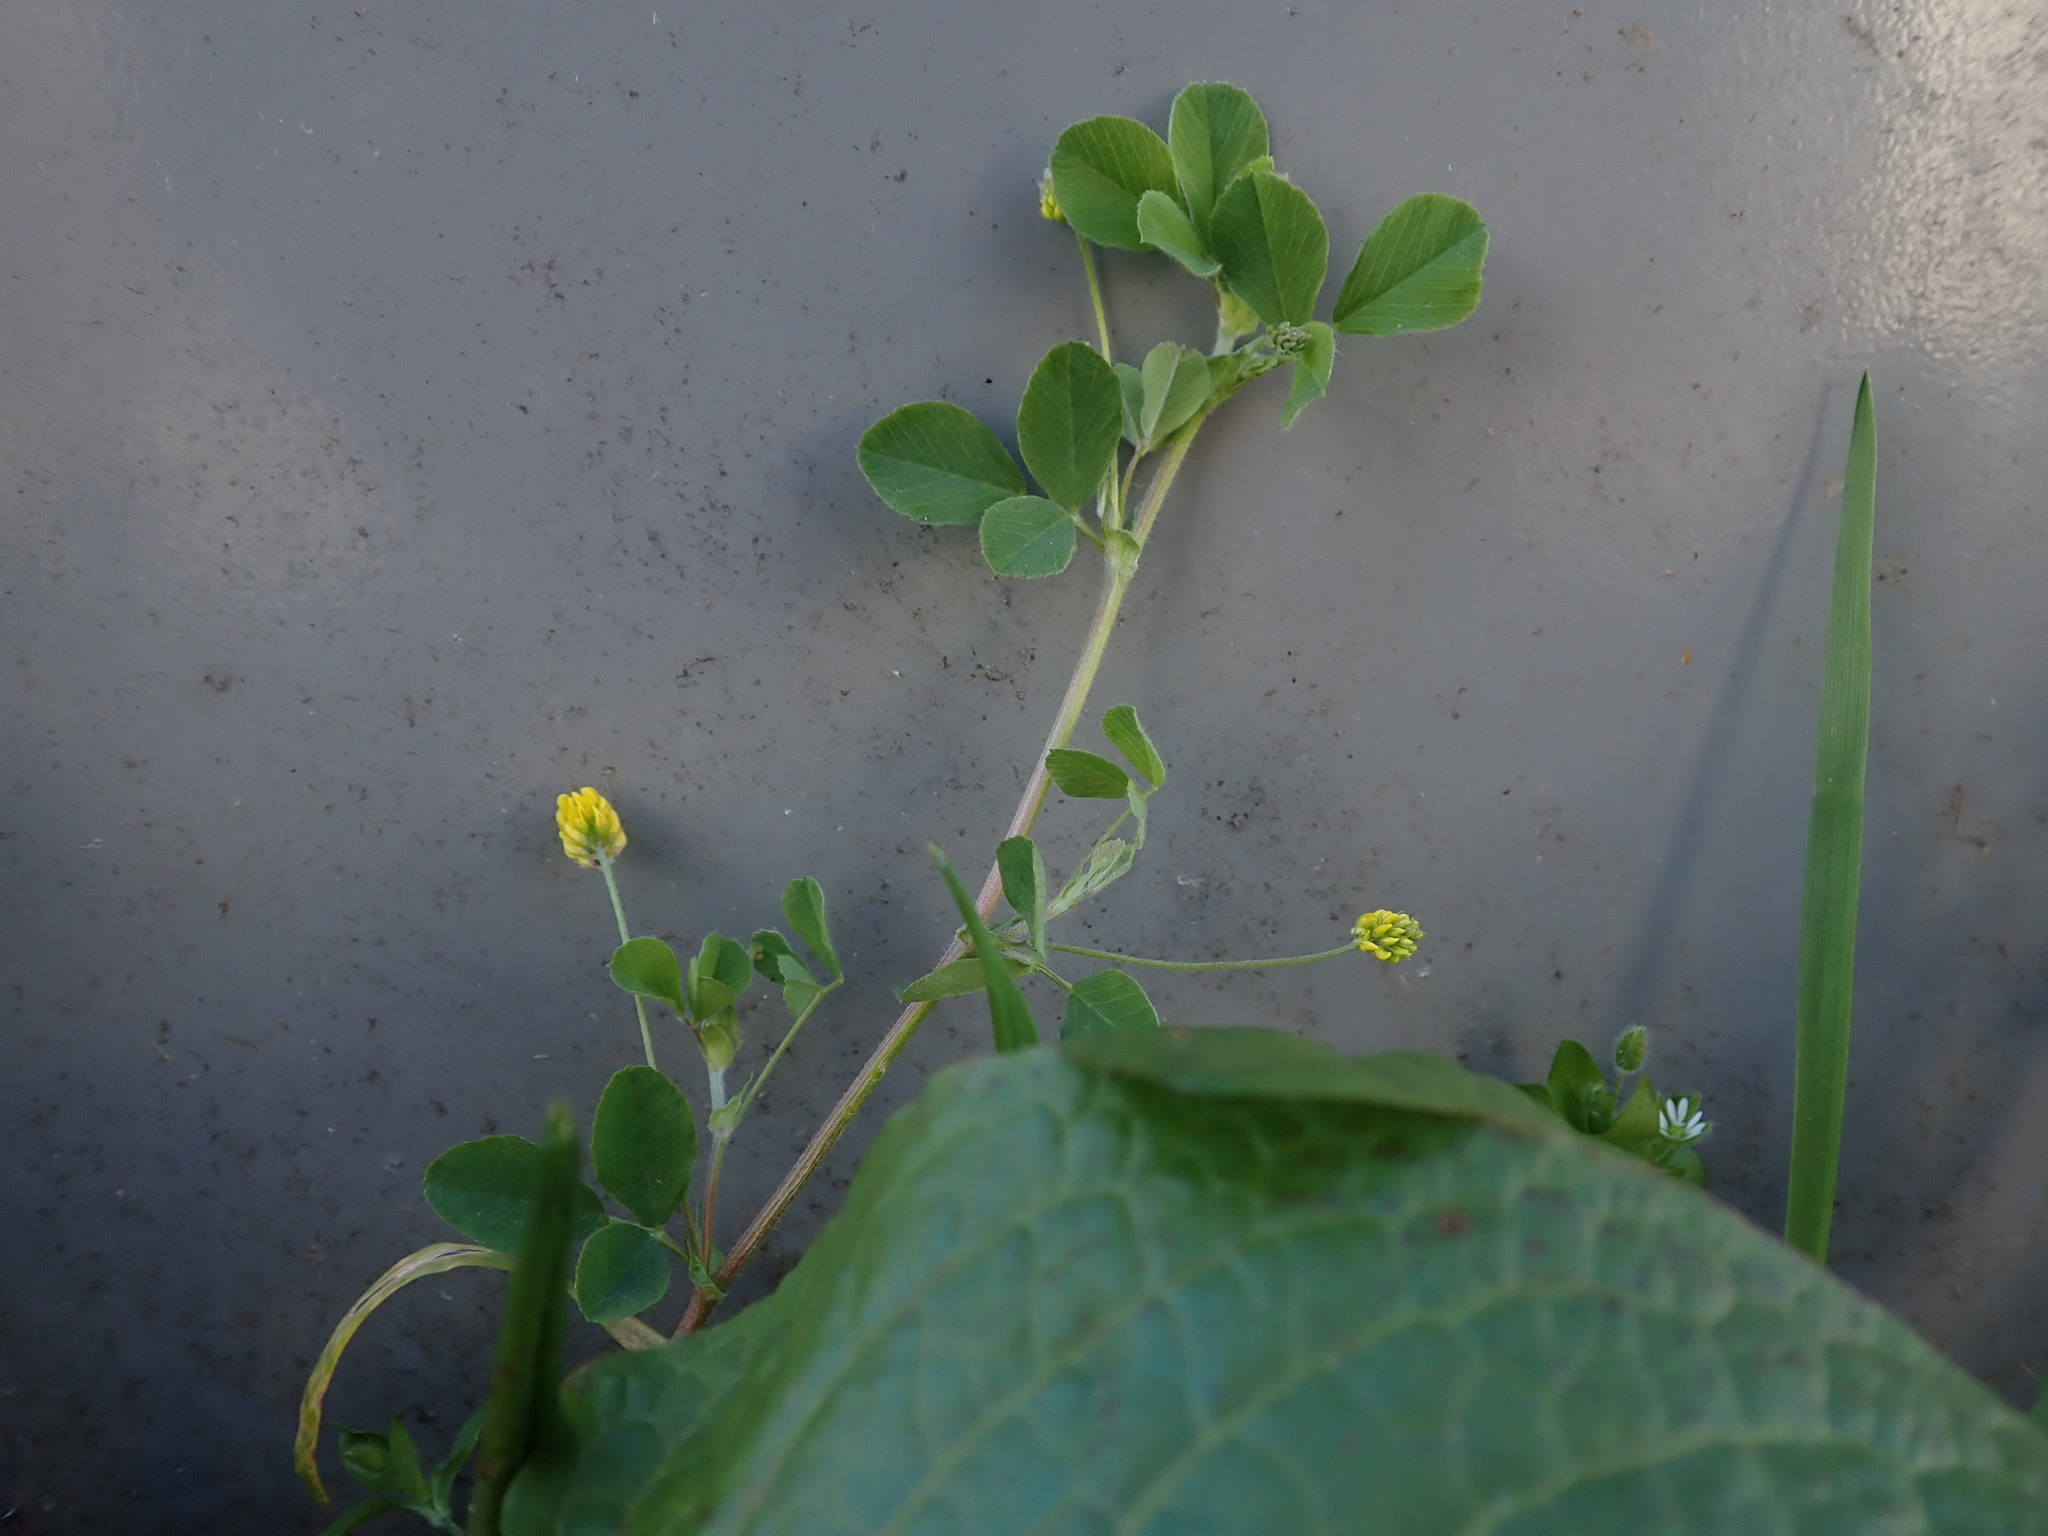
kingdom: Plantae
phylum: Tracheophyta
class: Magnoliopsida
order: Fabales
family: Fabaceae
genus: Medicago
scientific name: Medicago lupulina
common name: Black medick
